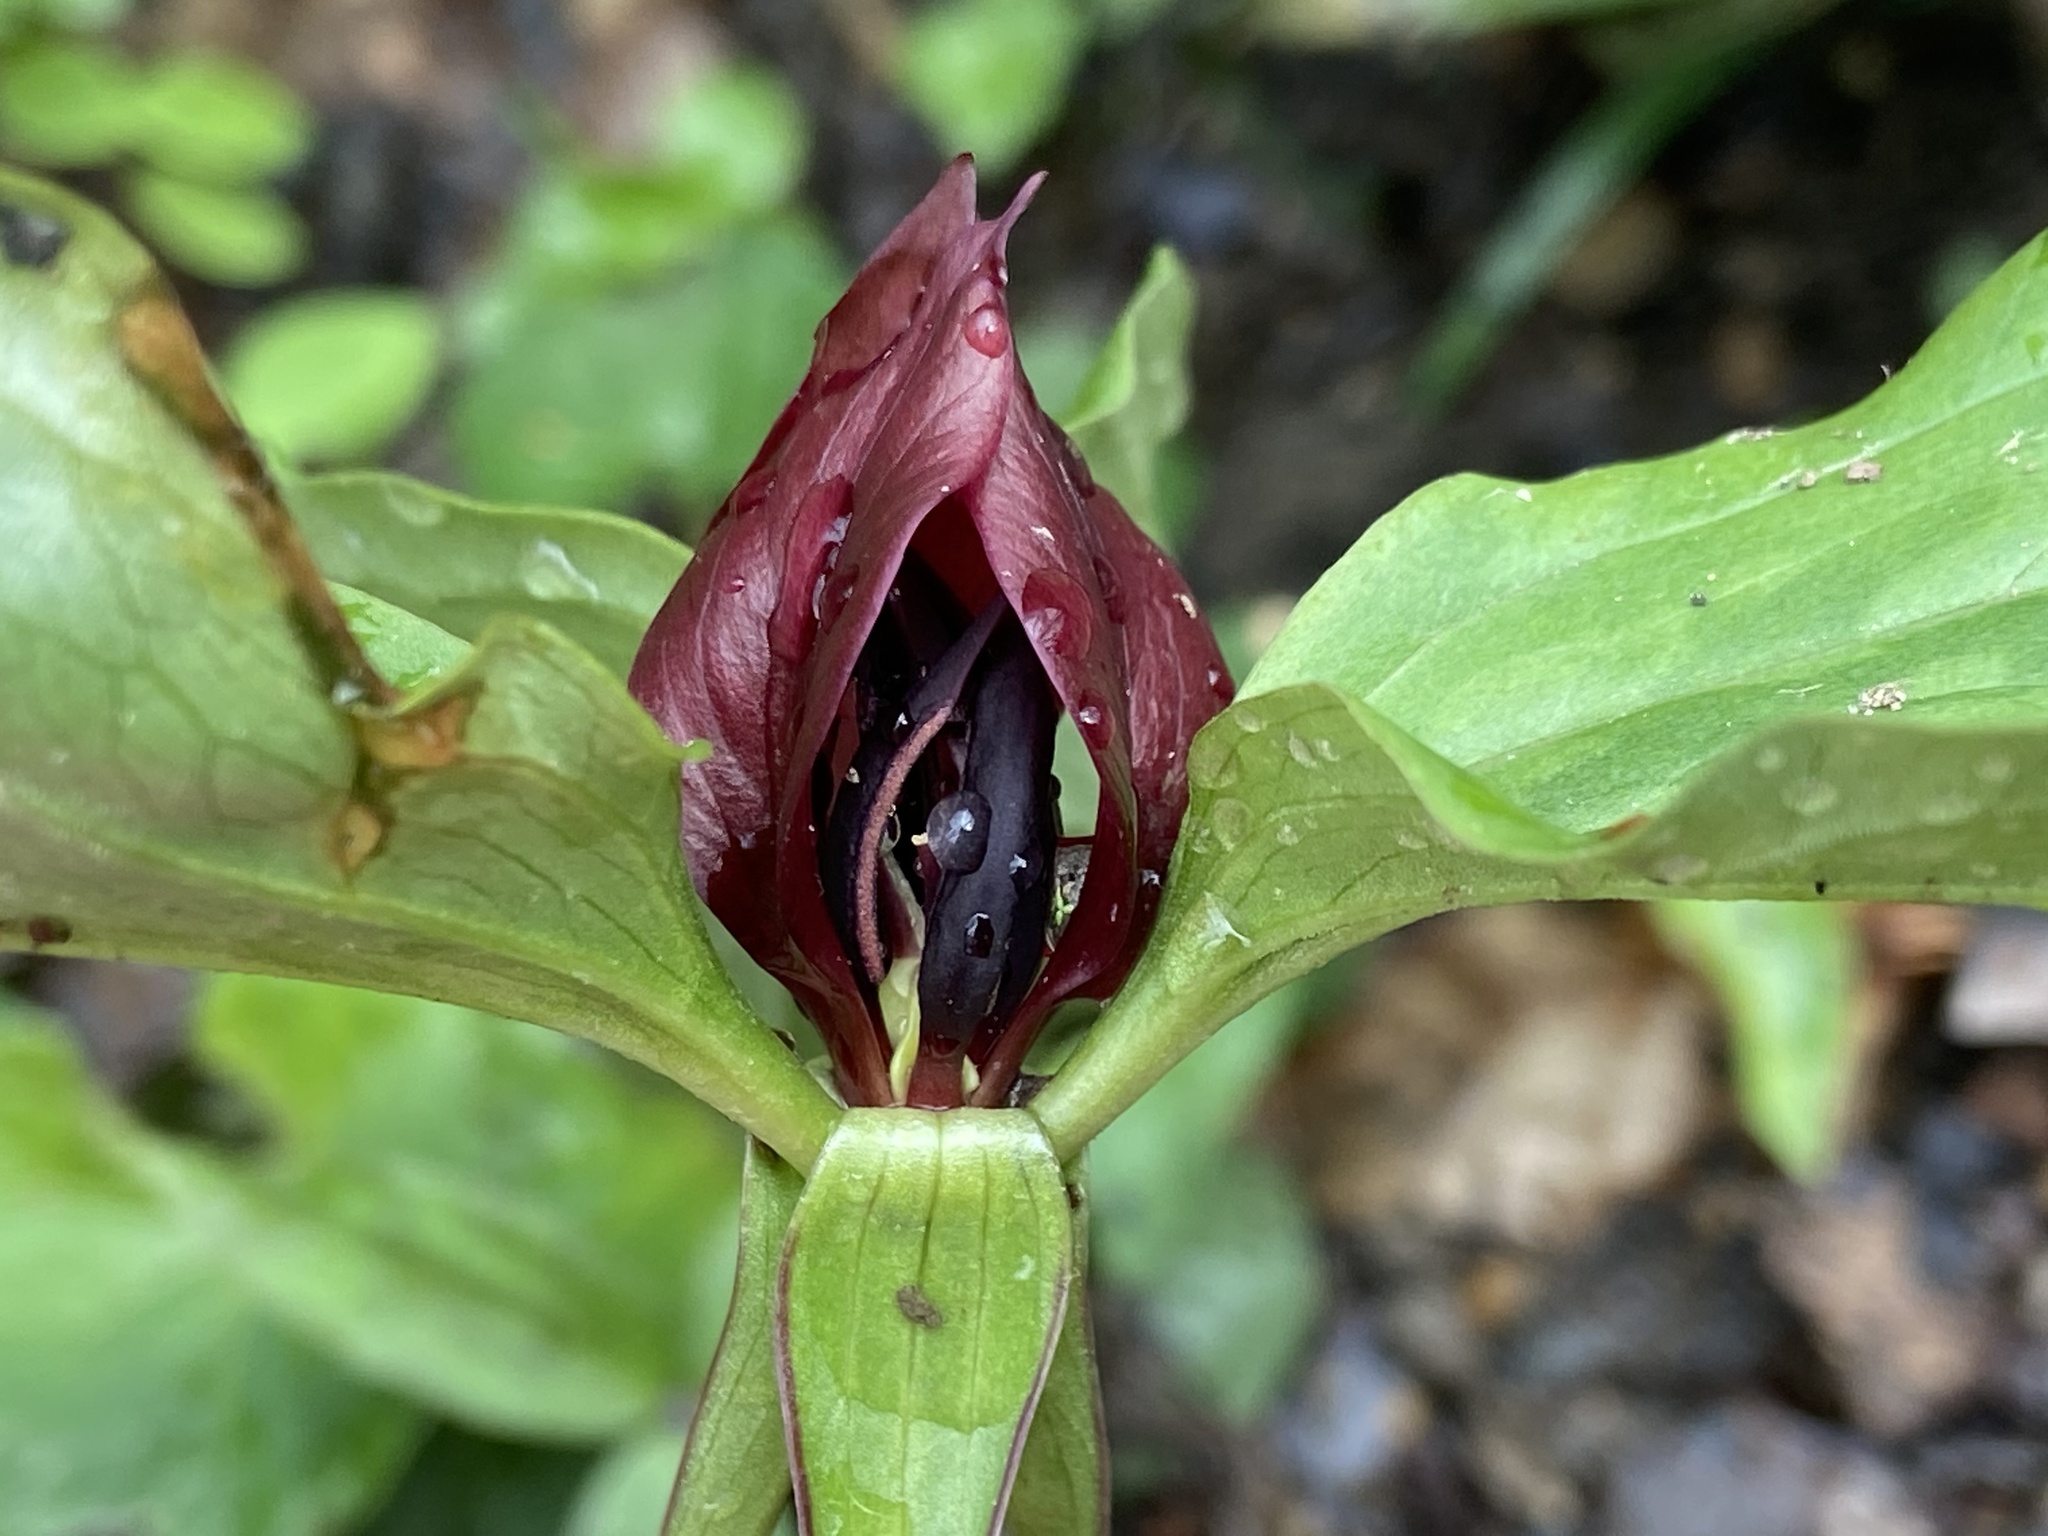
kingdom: Plantae
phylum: Tracheophyta
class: Liliopsida
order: Liliales
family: Melanthiaceae
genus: Trillium
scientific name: Trillium recurvatum
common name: Bloody butcher
